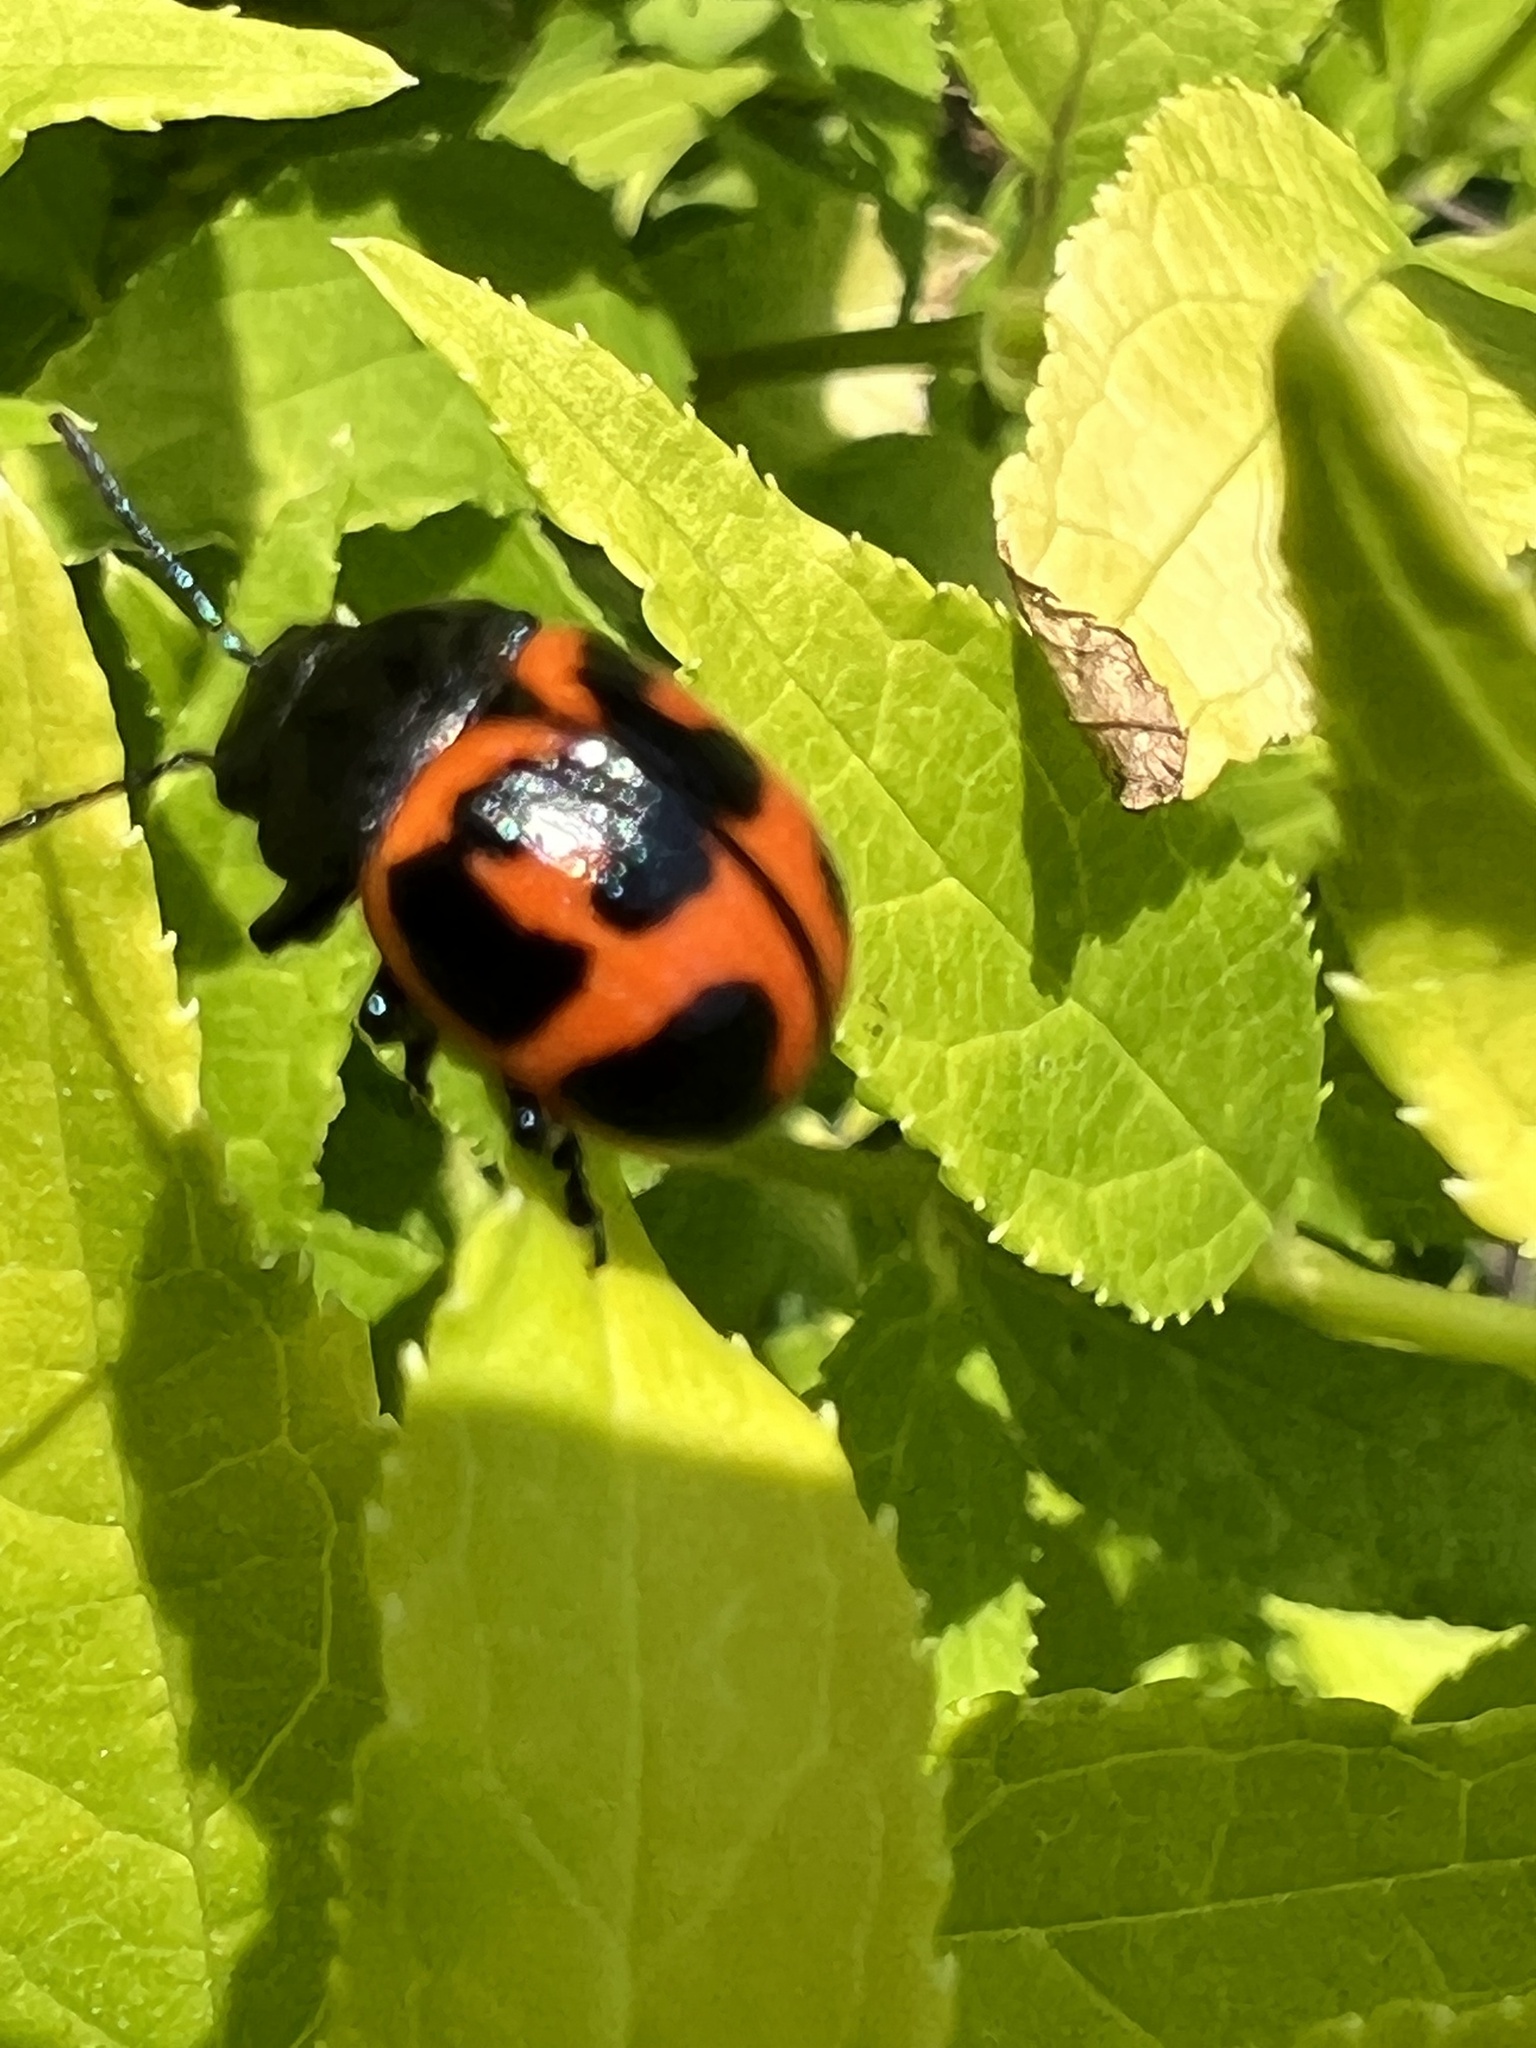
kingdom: Animalia
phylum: Arthropoda
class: Insecta
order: Coleoptera
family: Chrysomelidae
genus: Labidomera
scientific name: Labidomera clivicollis
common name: Swamp milkweed leaf beetle
